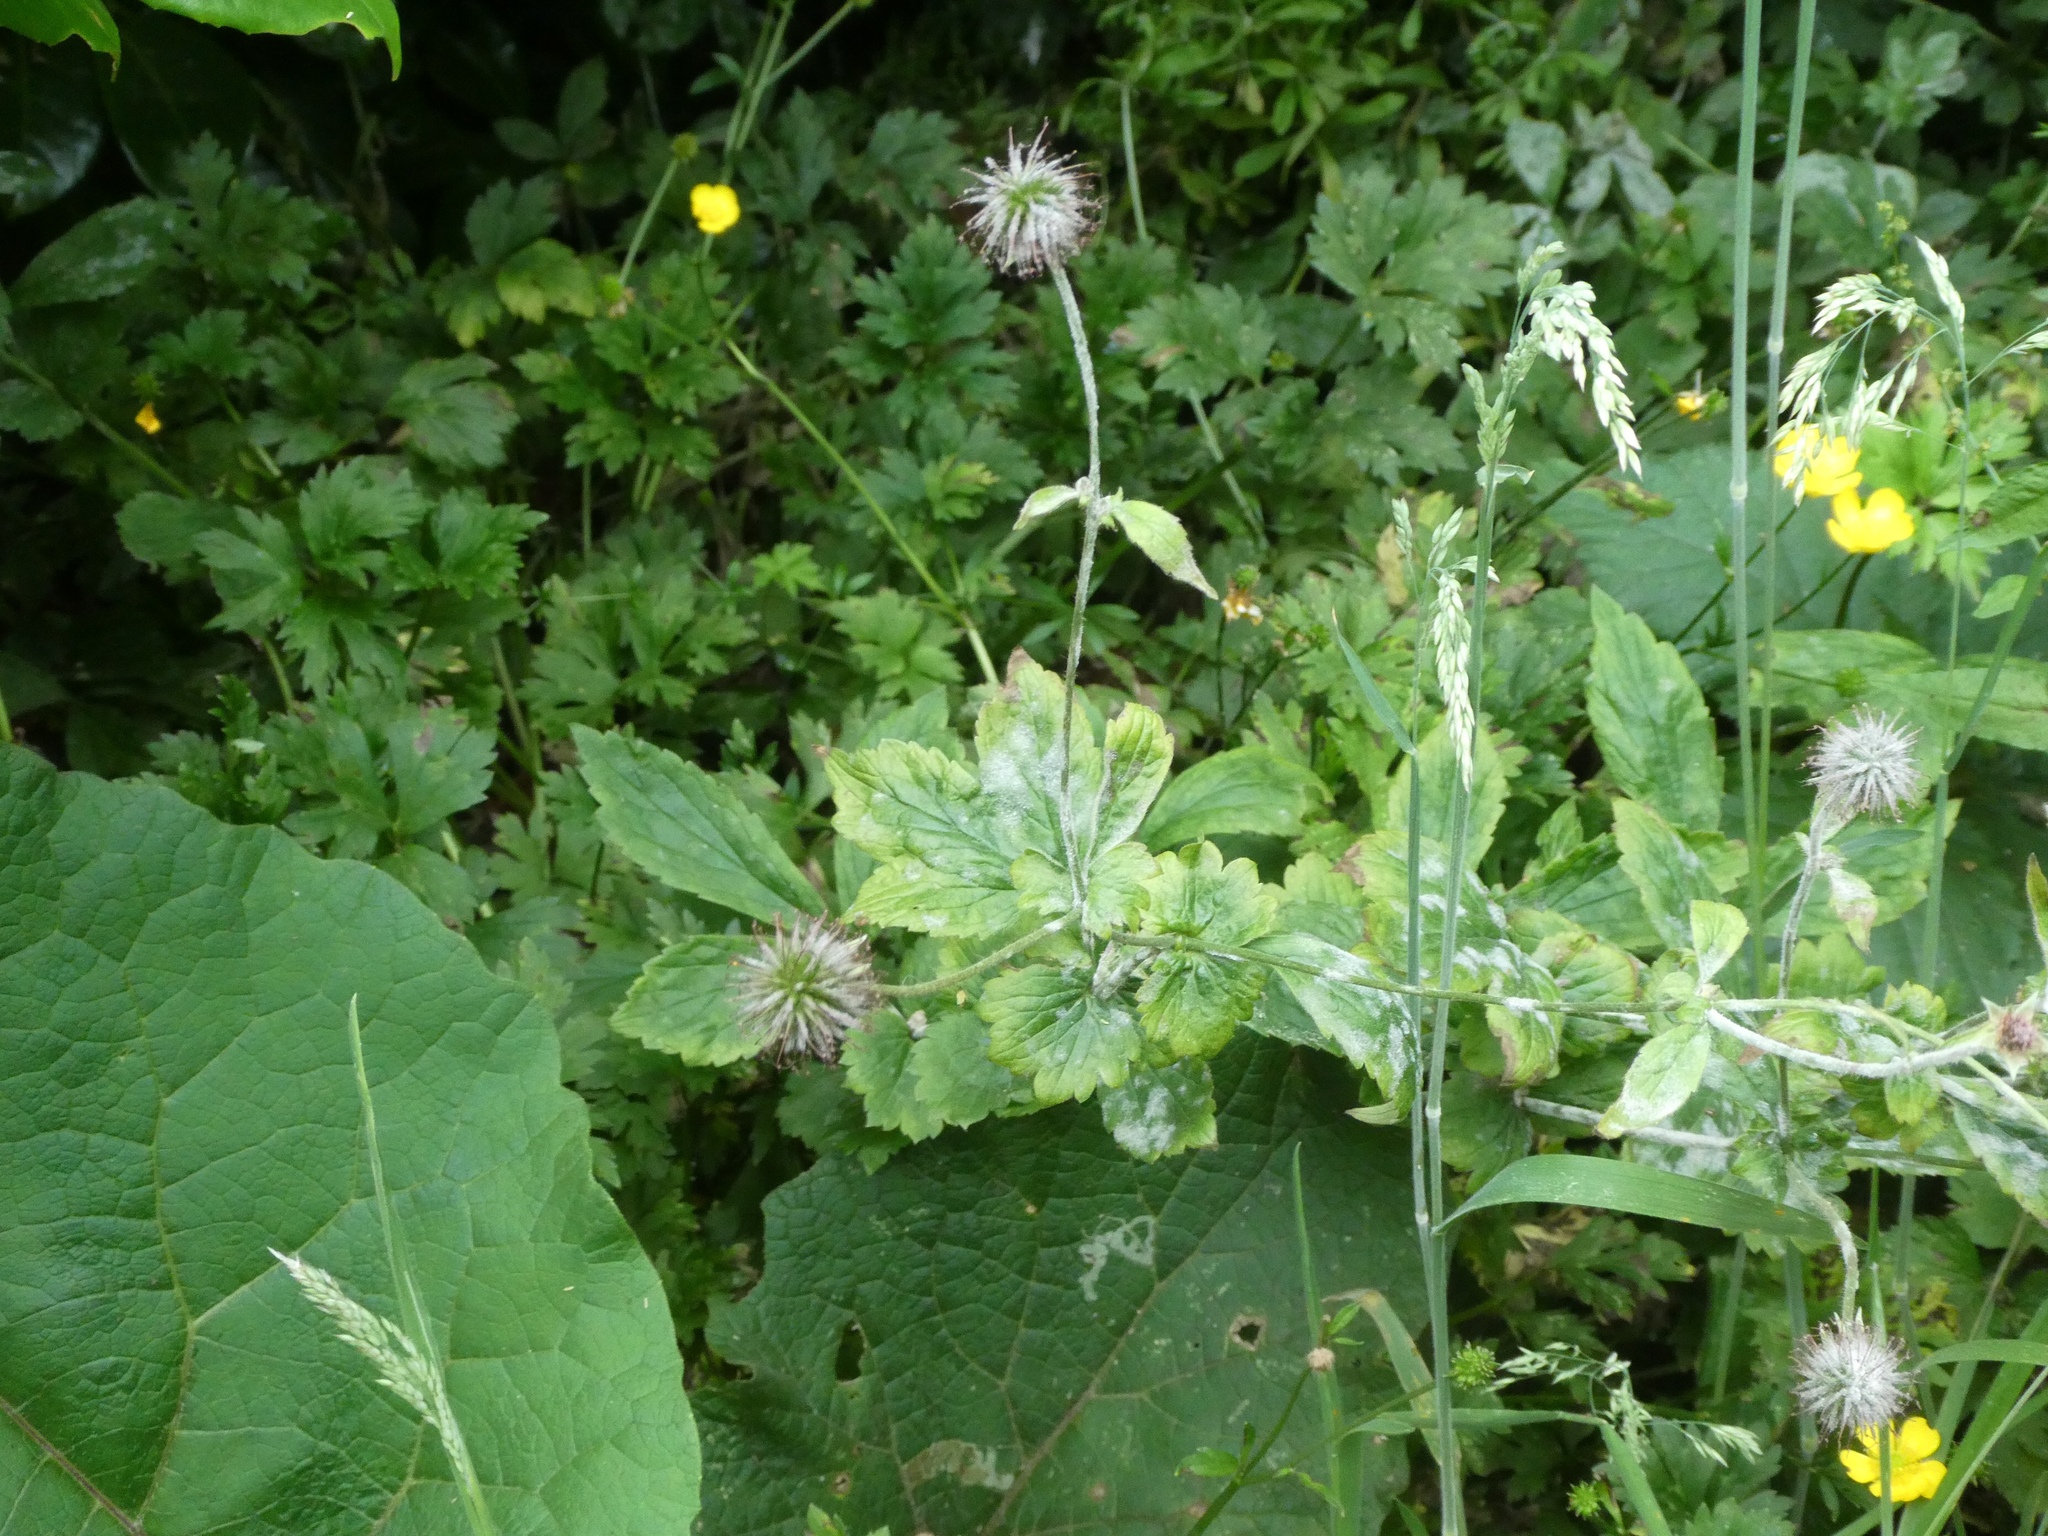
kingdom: Plantae
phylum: Tracheophyta
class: Magnoliopsida
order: Rosales
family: Rosaceae
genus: Geum
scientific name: Geum urbanum
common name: Wood avens
